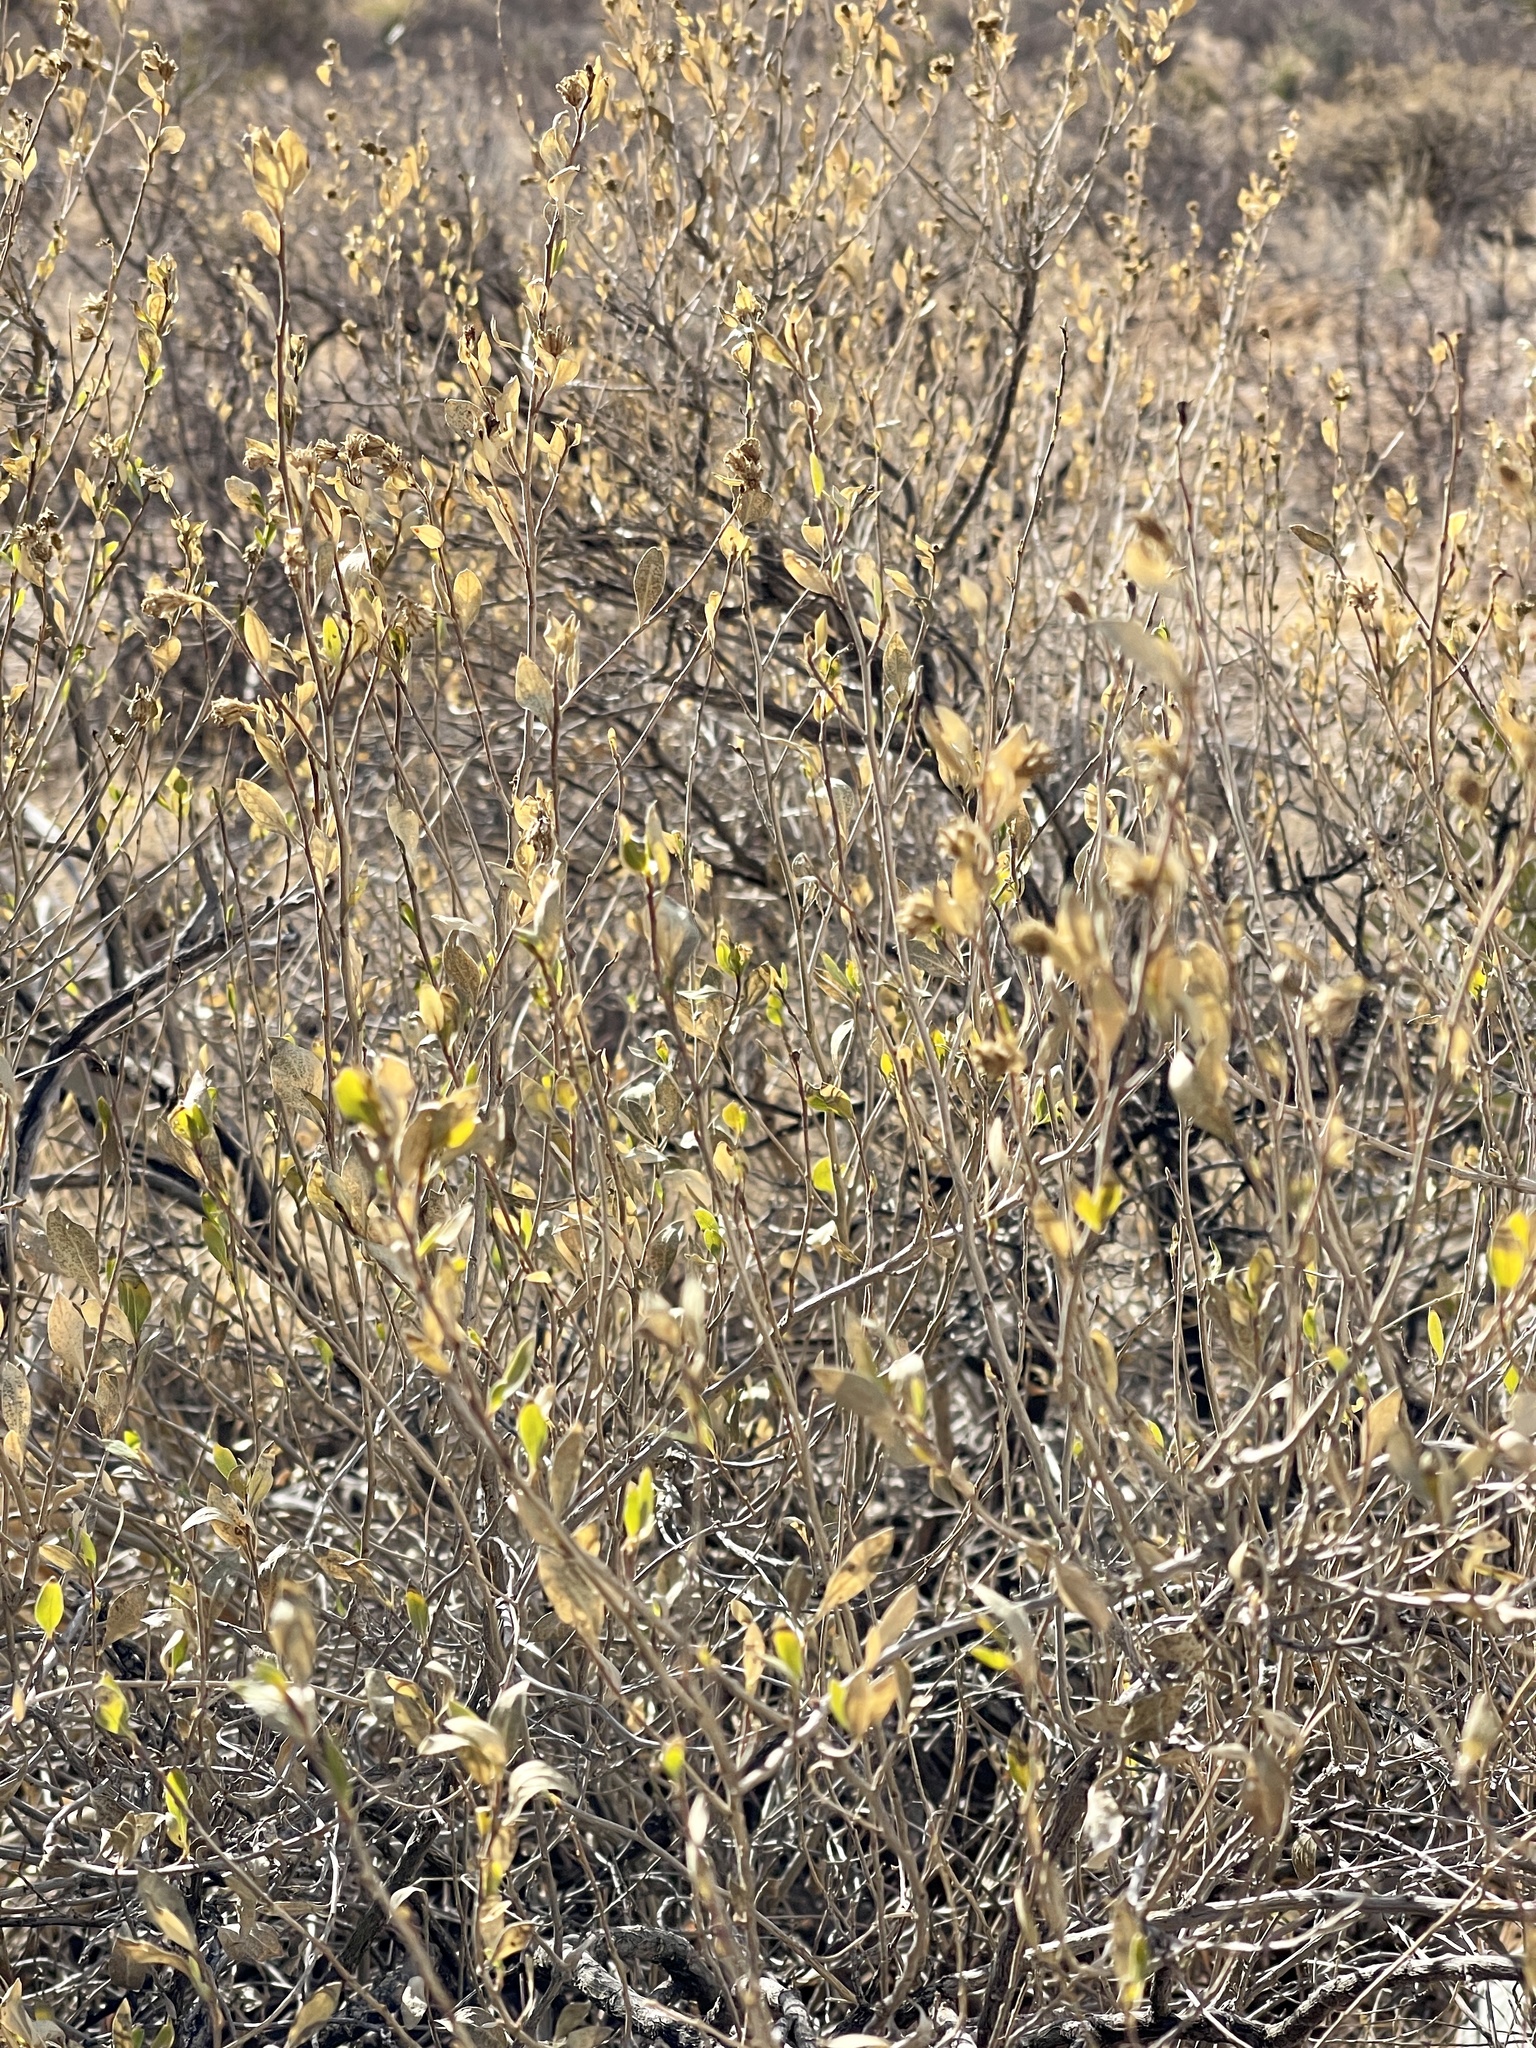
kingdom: Plantae
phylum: Tracheophyta
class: Magnoliopsida
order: Asterales
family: Asteraceae
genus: Flourensia
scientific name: Flourensia cernua
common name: Varnishbush
